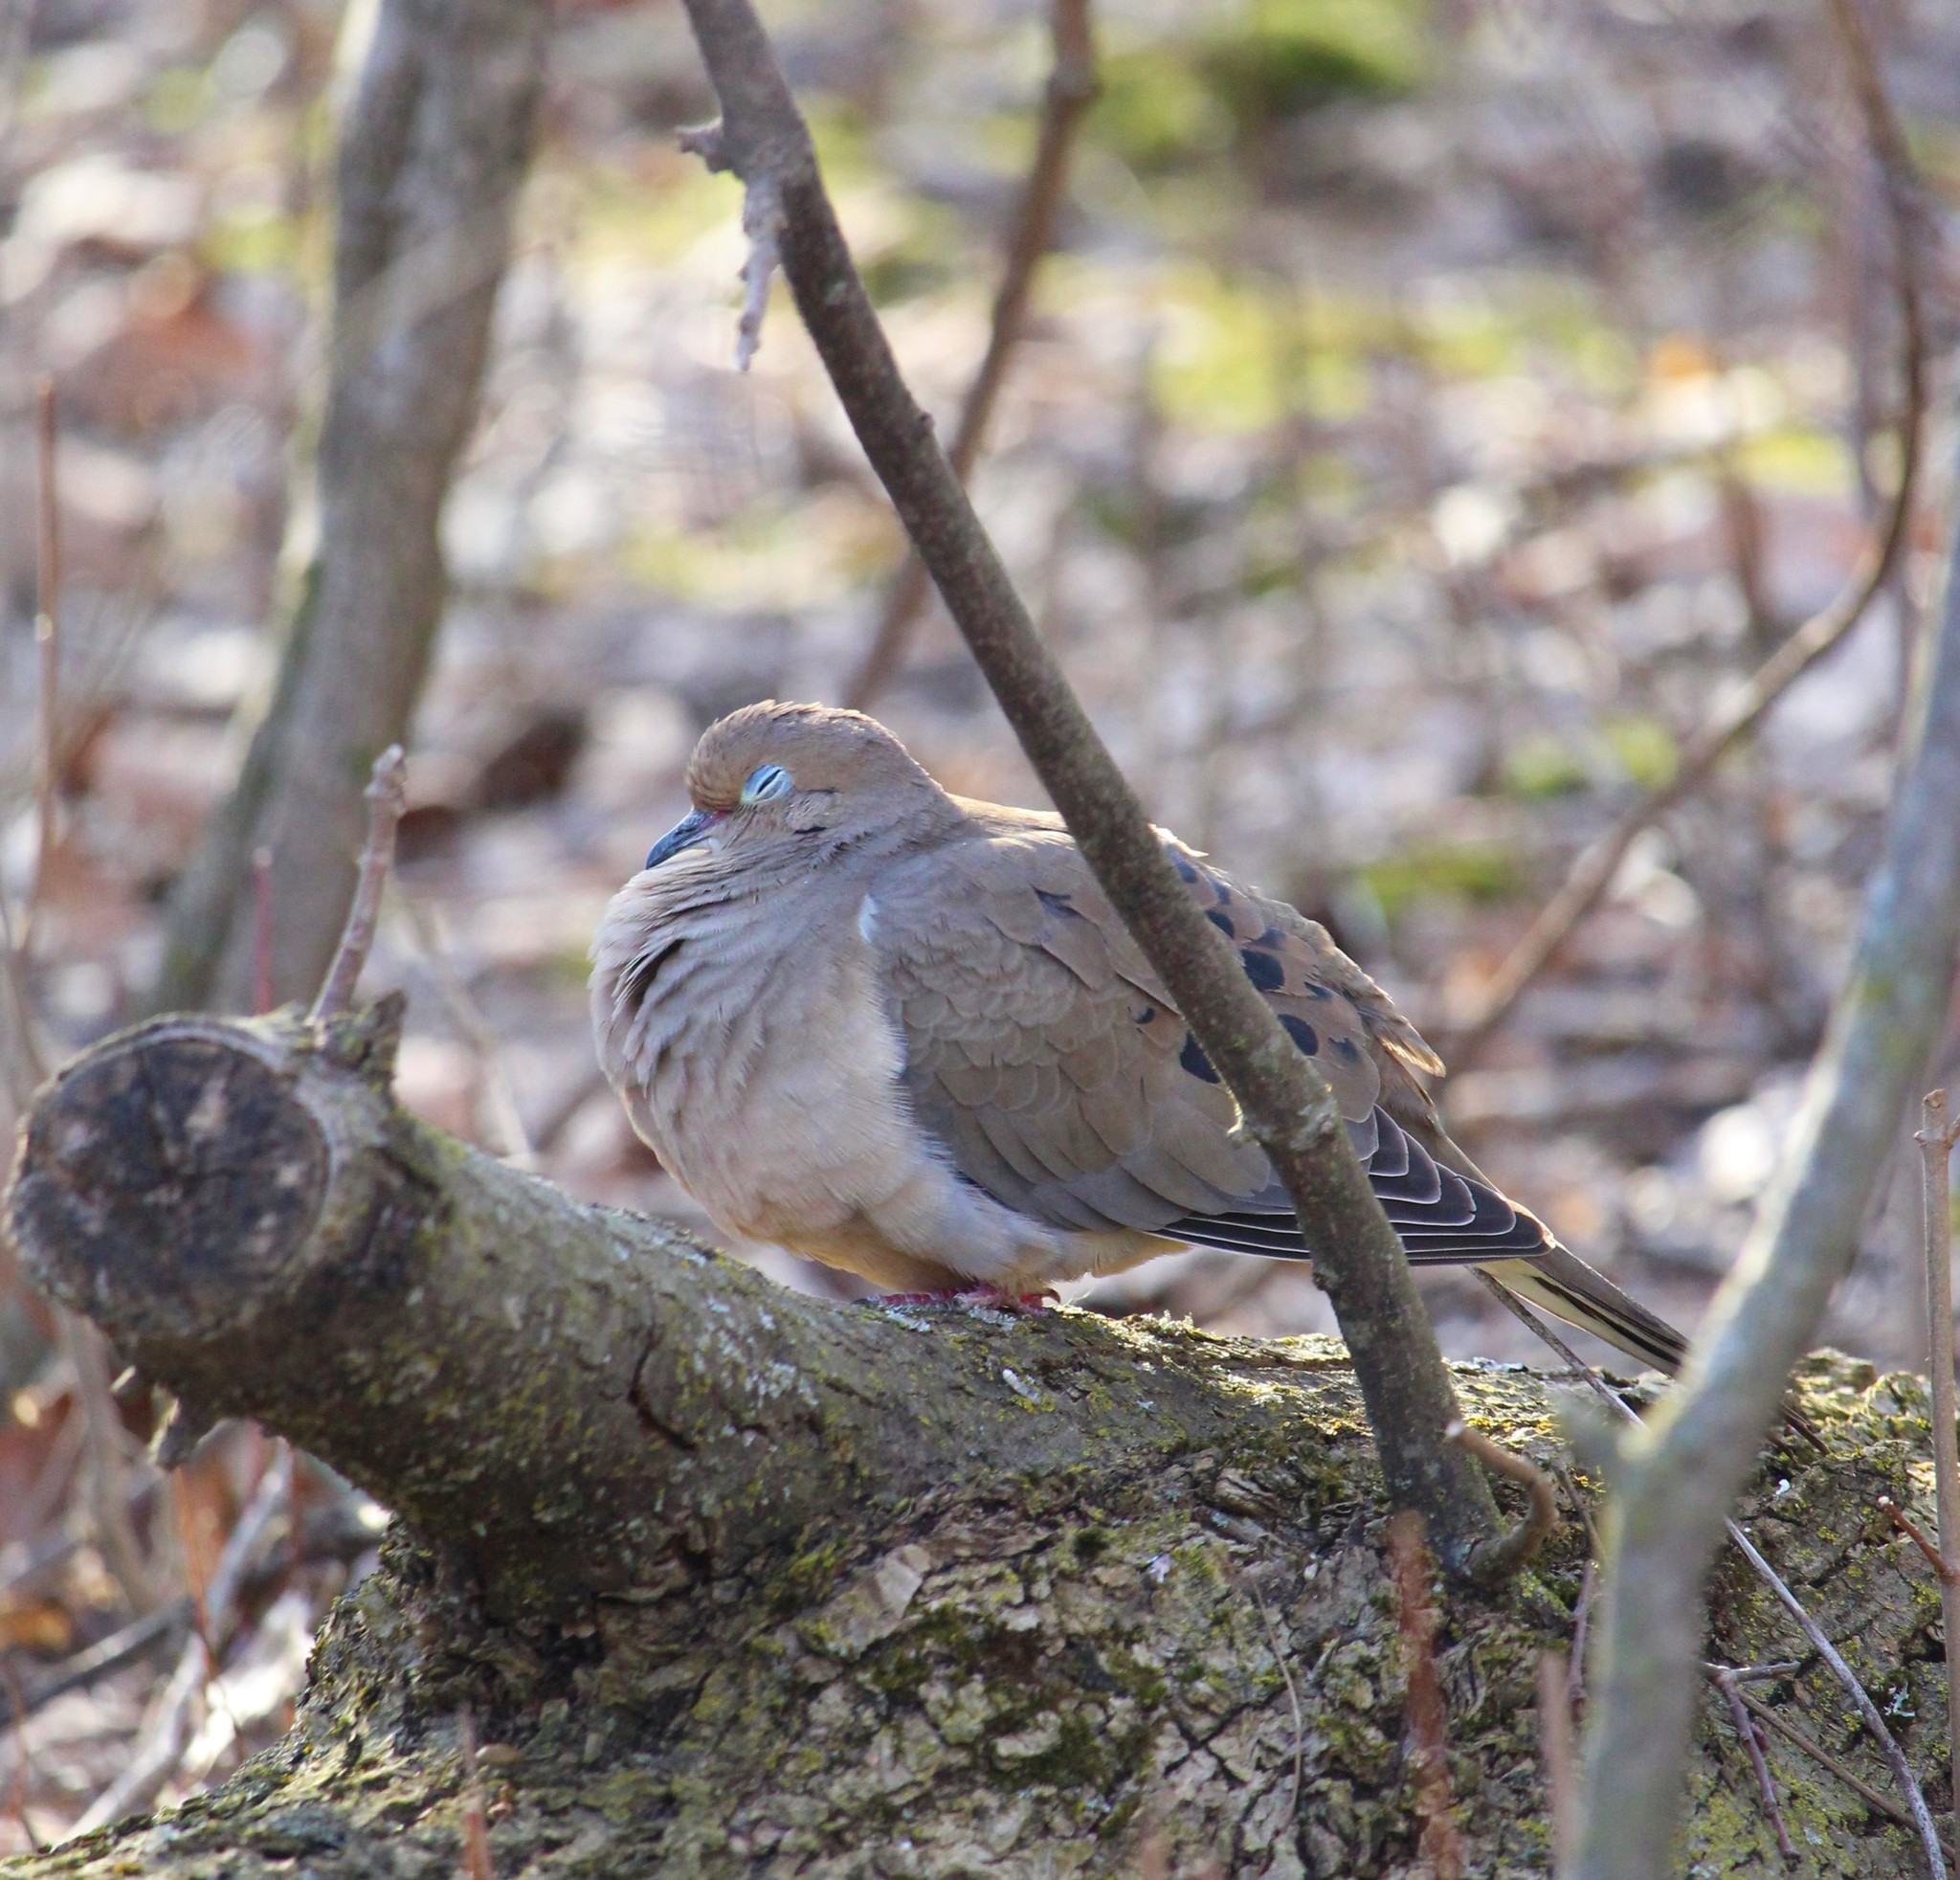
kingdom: Animalia
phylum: Chordata
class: Aves
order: Columbiformes
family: Columbidae
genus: Zenaida
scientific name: Zenaida macroura
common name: Mourning dove
